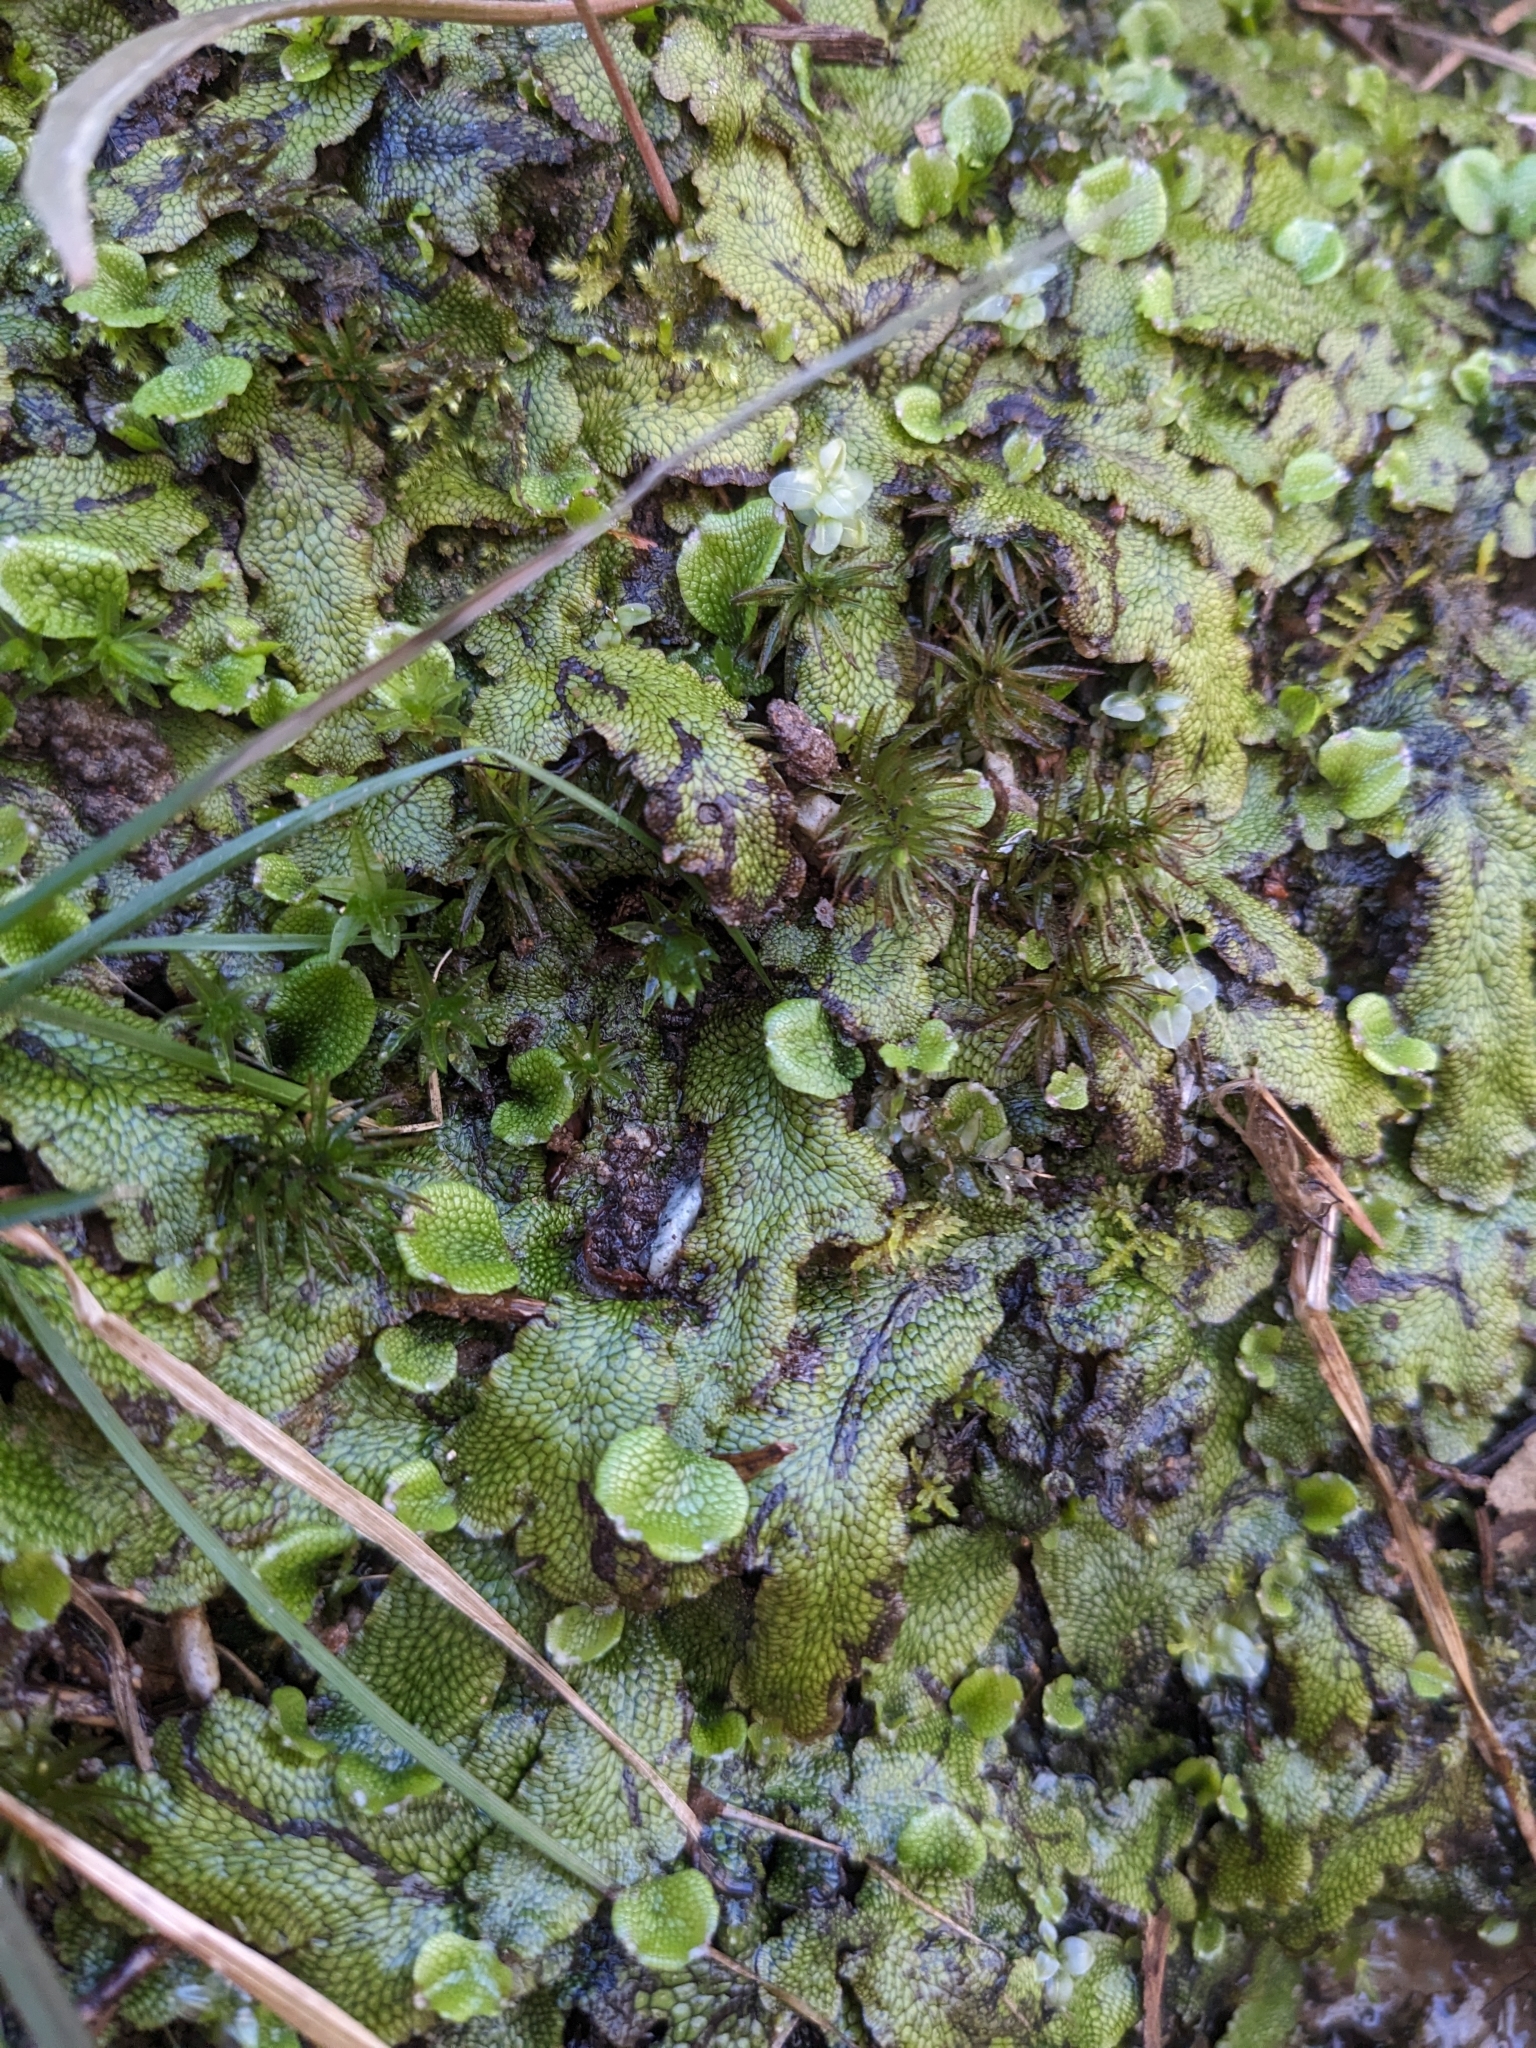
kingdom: Plantae
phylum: Marchantiophyta
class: Marchantiopsida
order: Marchantiales
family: Conocephalaceae
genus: Conocephalum
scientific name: Conocephalum salebrosum
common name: Cat-tongue liverwort
